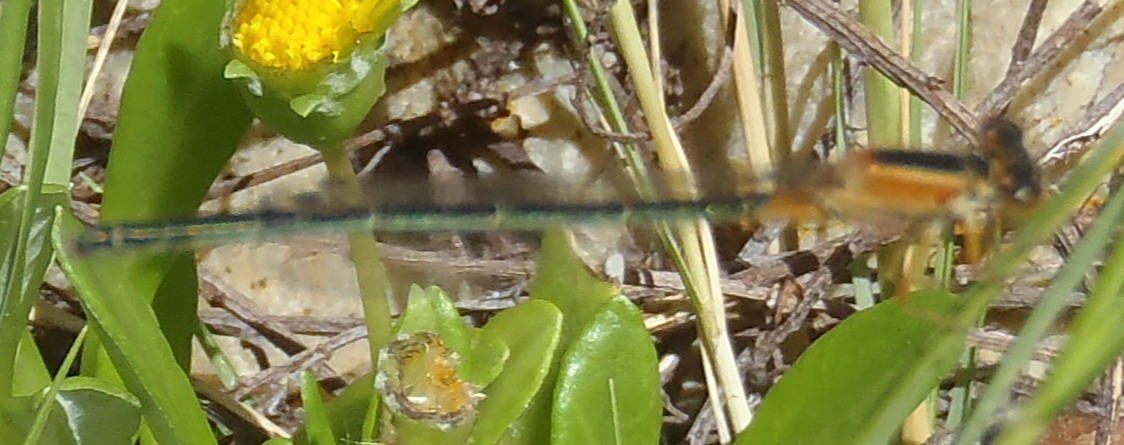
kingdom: Animalia
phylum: Arthropoda
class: Insecta
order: Odonata
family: Coenagrionidae
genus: Ischnura
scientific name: Ischnura senegalensis
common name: Tropical bluetail
